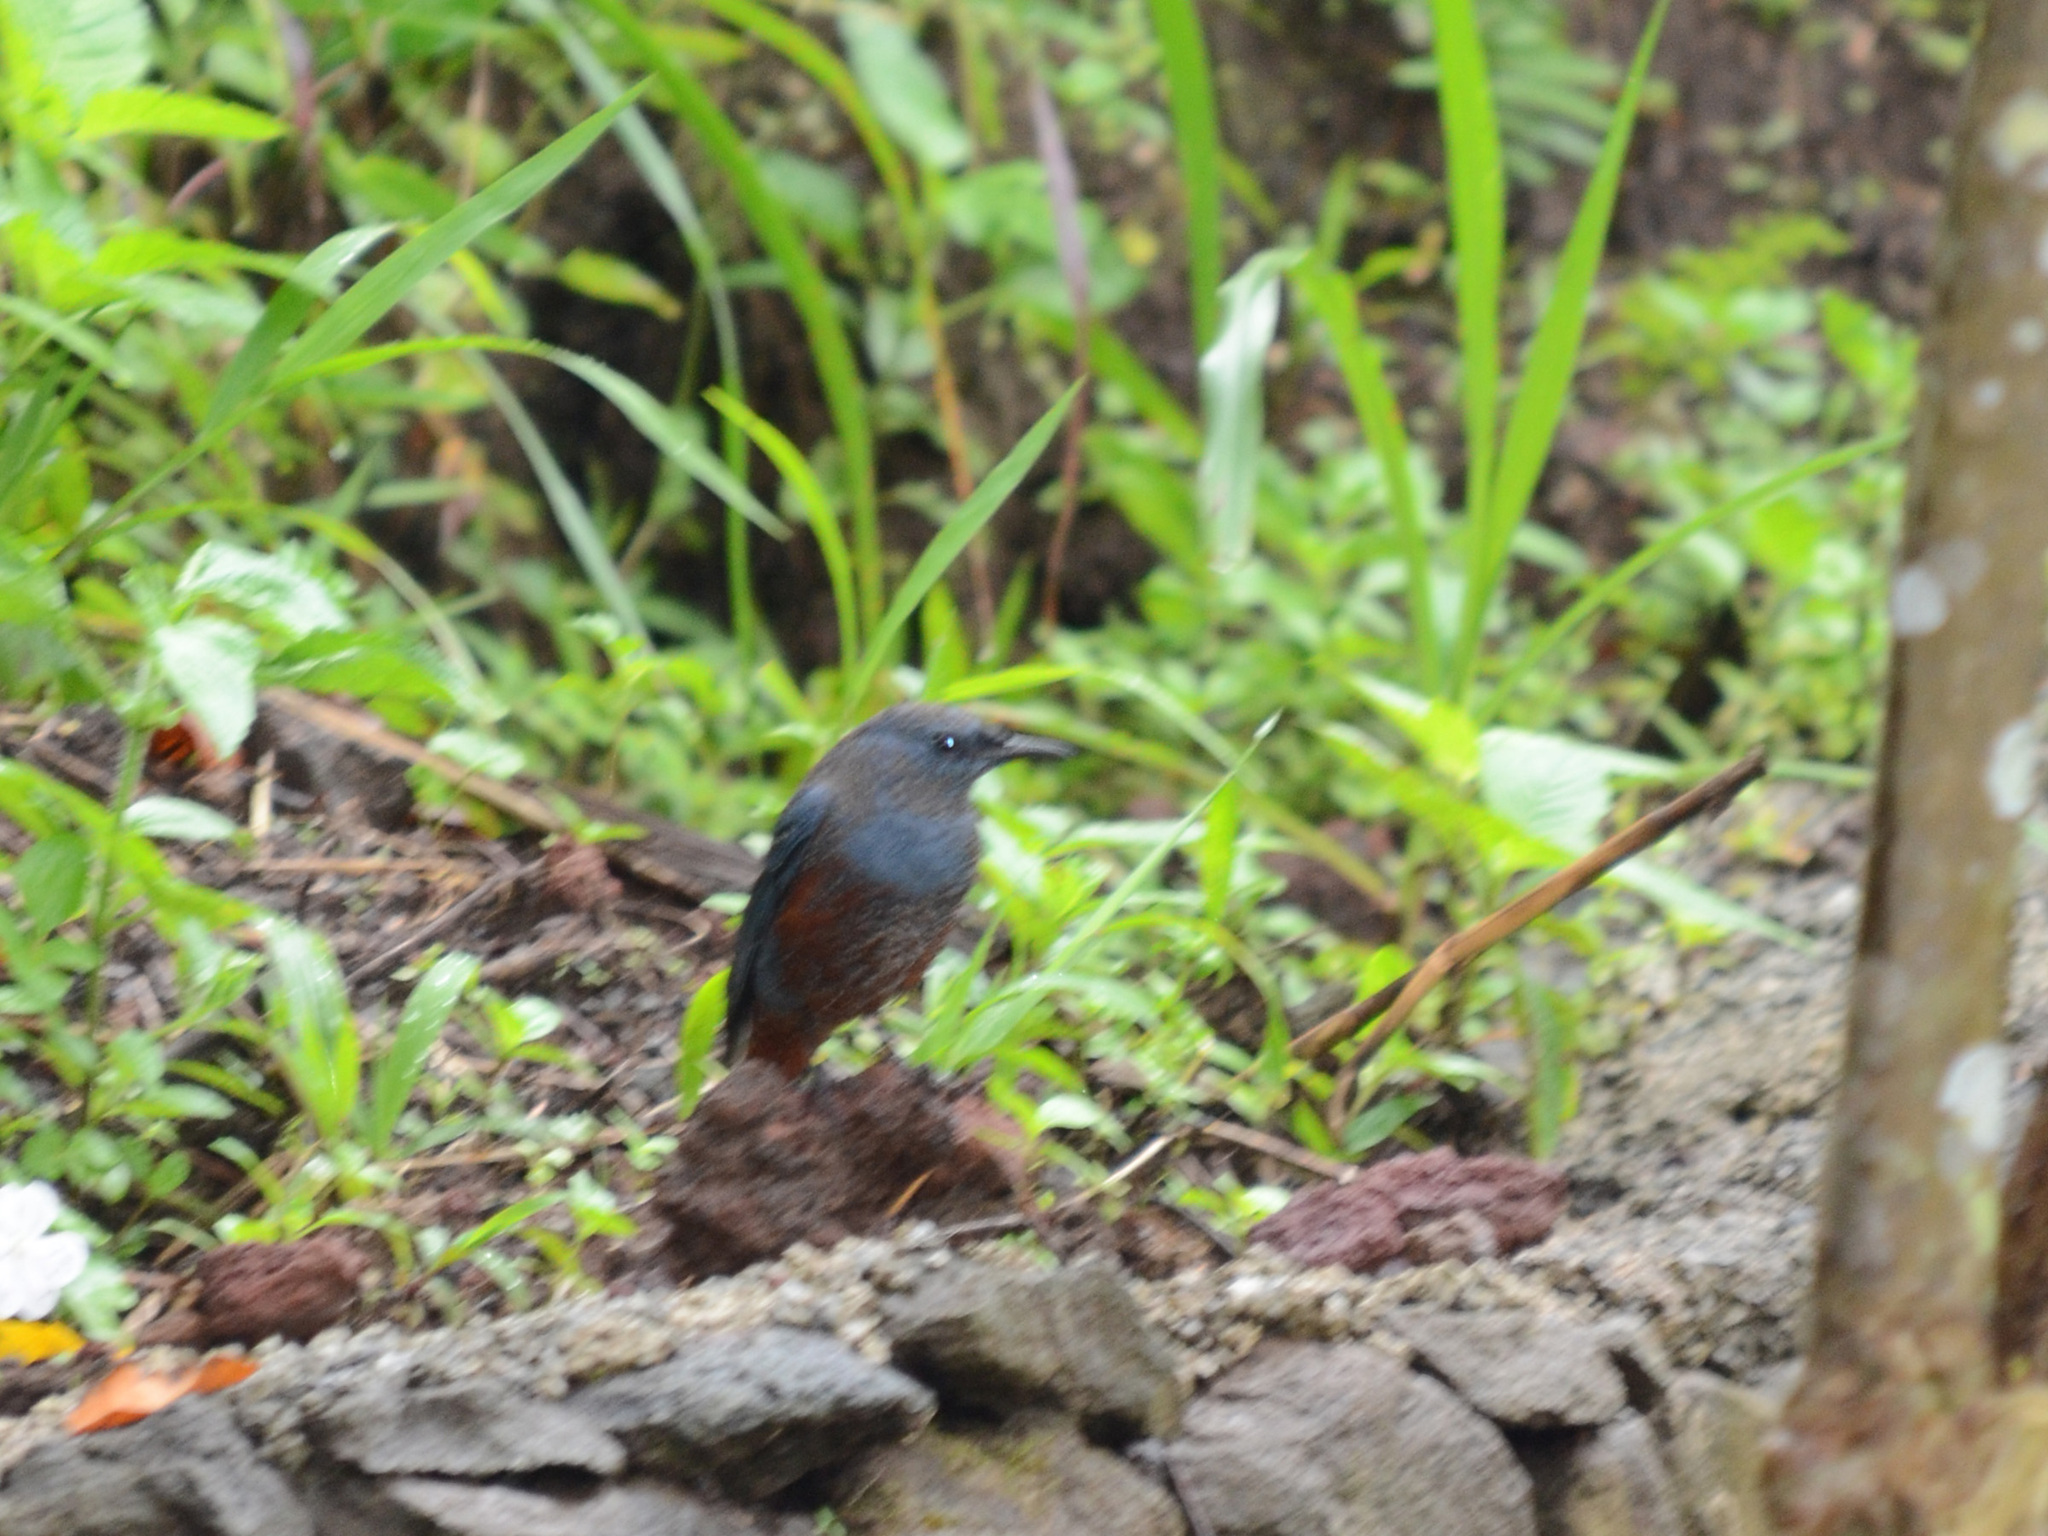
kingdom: Animalia
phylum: Chordata
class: Aves
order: Passeriformes
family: Muscicapidae
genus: Monticola
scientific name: Monticola solitarius
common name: Blue rock thrush
